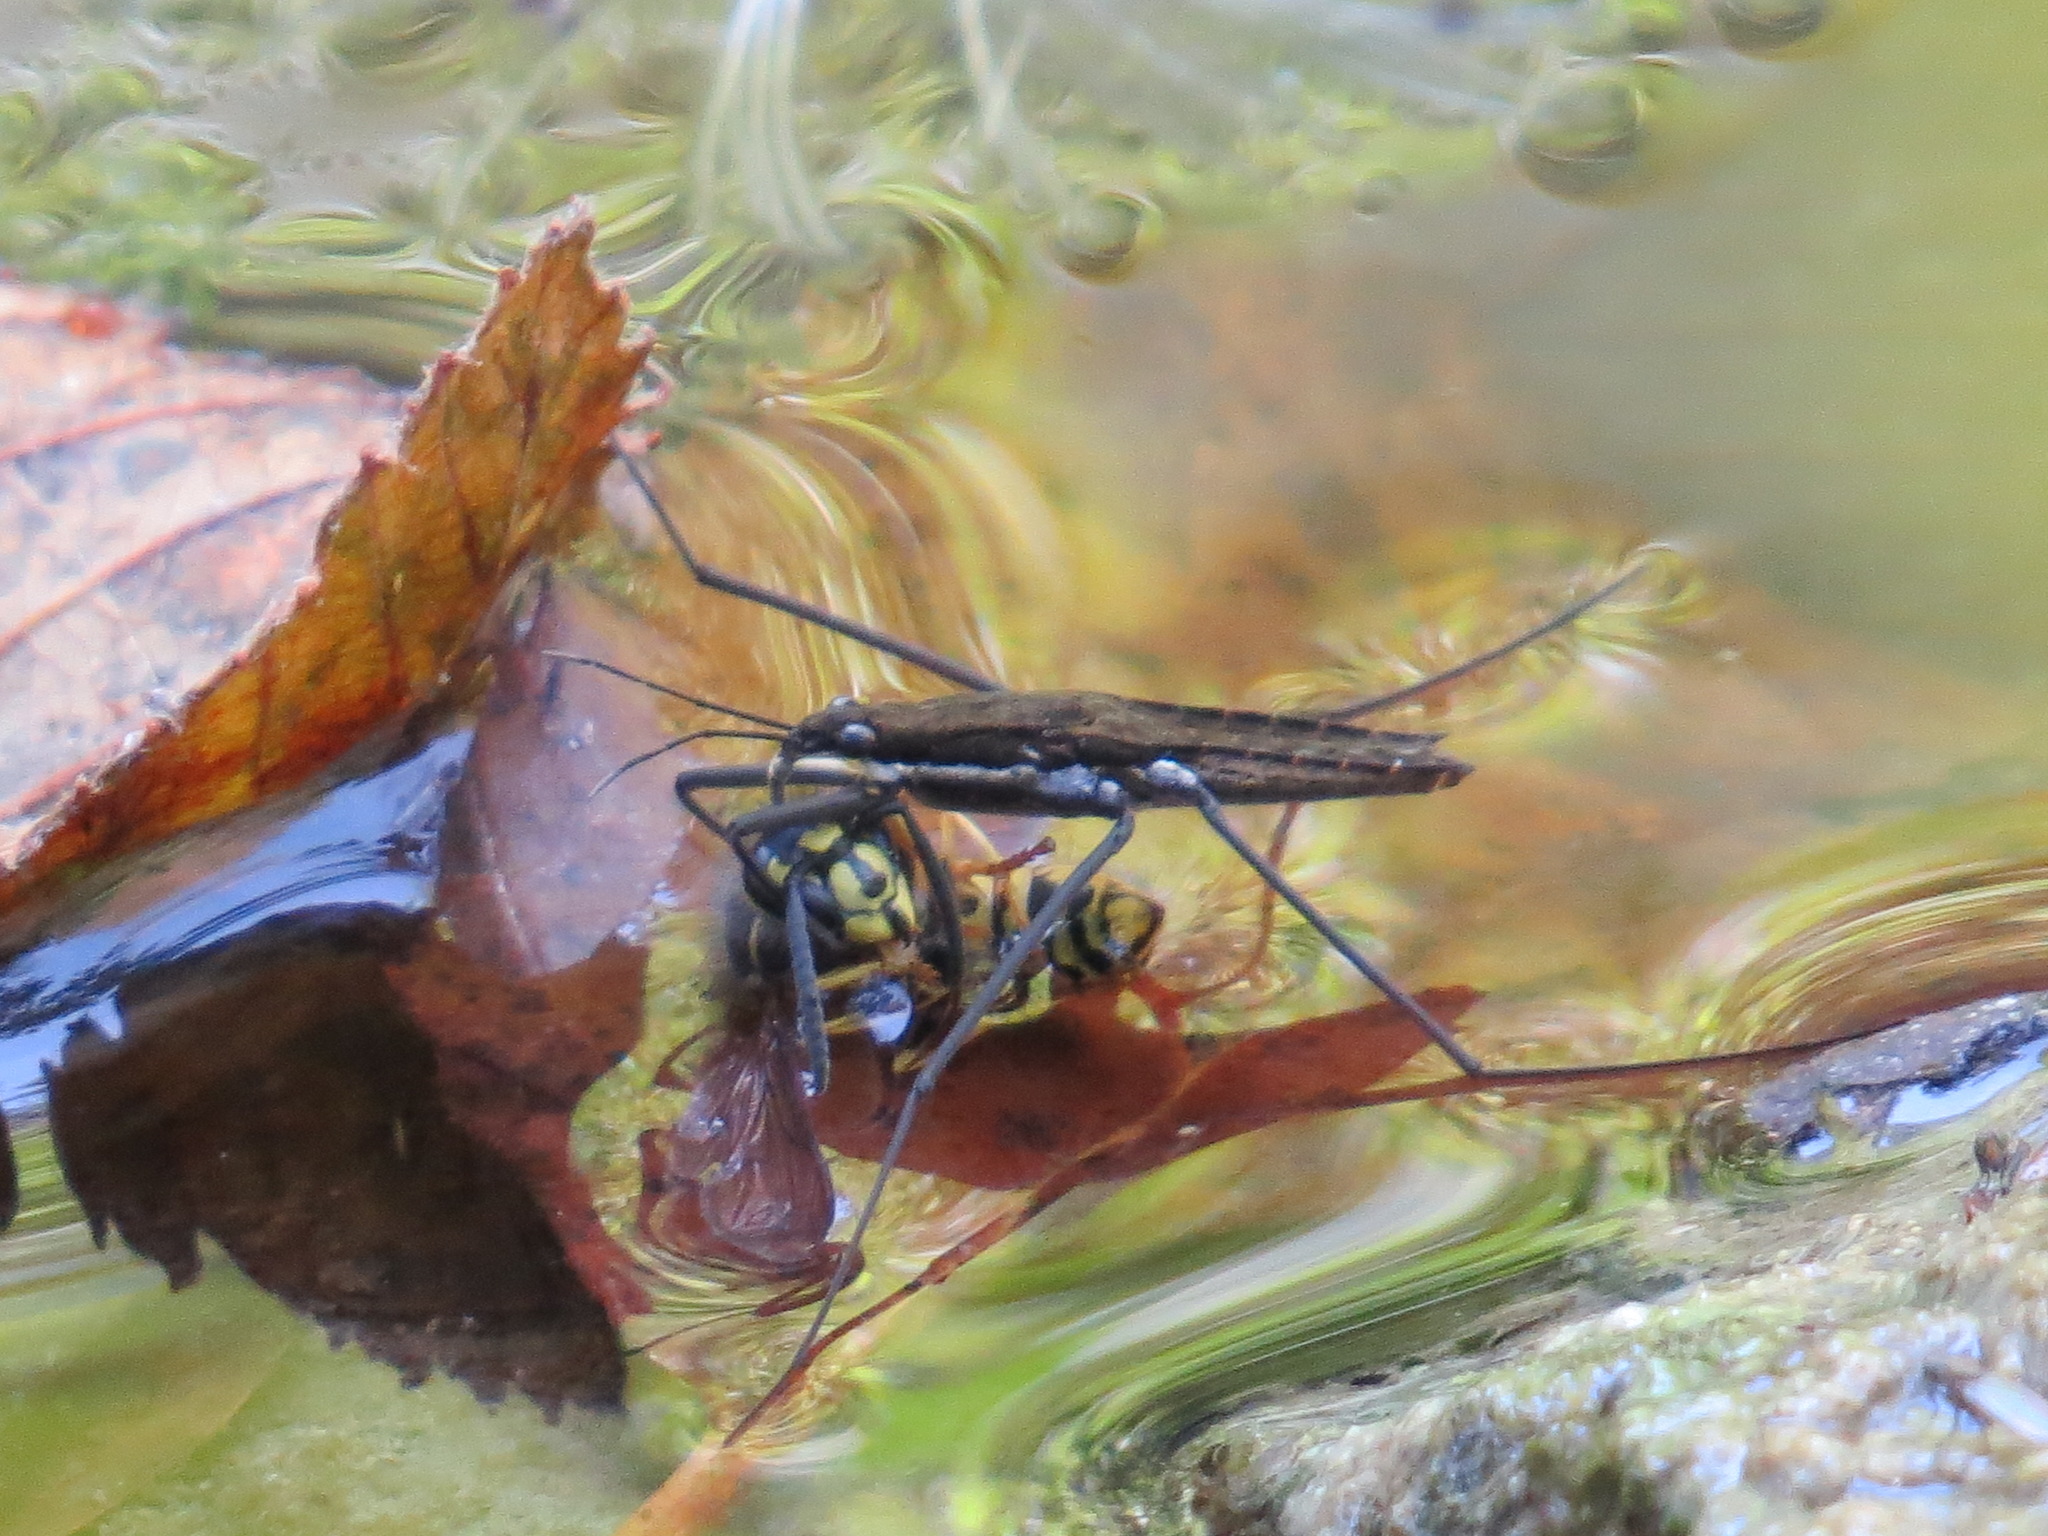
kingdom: Animalia
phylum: Arthropoda
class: Insecta
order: Hymenoptera
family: Vespidae
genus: Vespula
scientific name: Vespula alascensis
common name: Alaska yellowjacket
